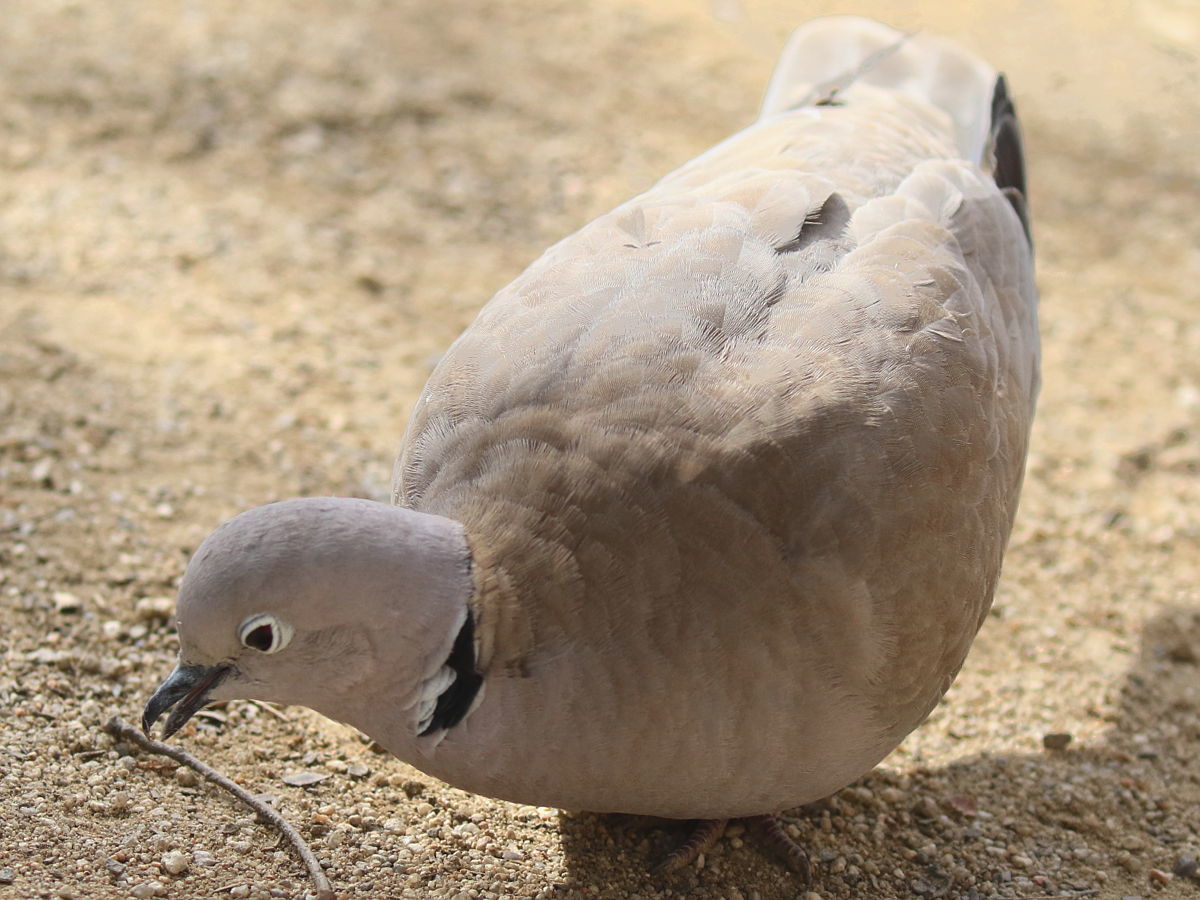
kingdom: Animalia
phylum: Chordata
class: Aves
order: Columbiformes
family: Columbidae
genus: Streptopelia
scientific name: Streptopelia decaocto
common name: Eurasian collared dove
